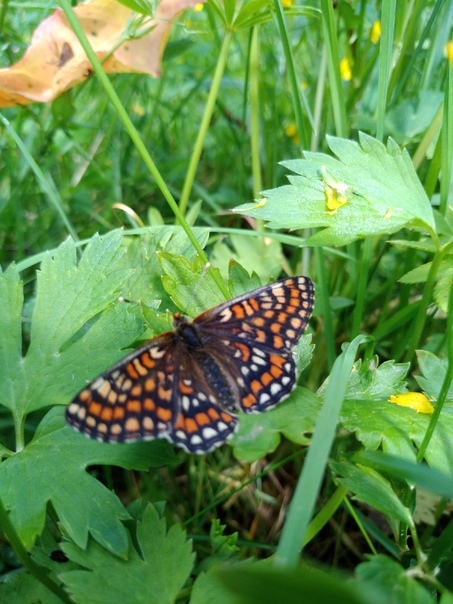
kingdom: Animalia
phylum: Arthropoda
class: Insecta
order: Lepidoptera
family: Nymphalidae
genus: Euphydryas
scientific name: Euphydryas maturna
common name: Scarce fritillary
